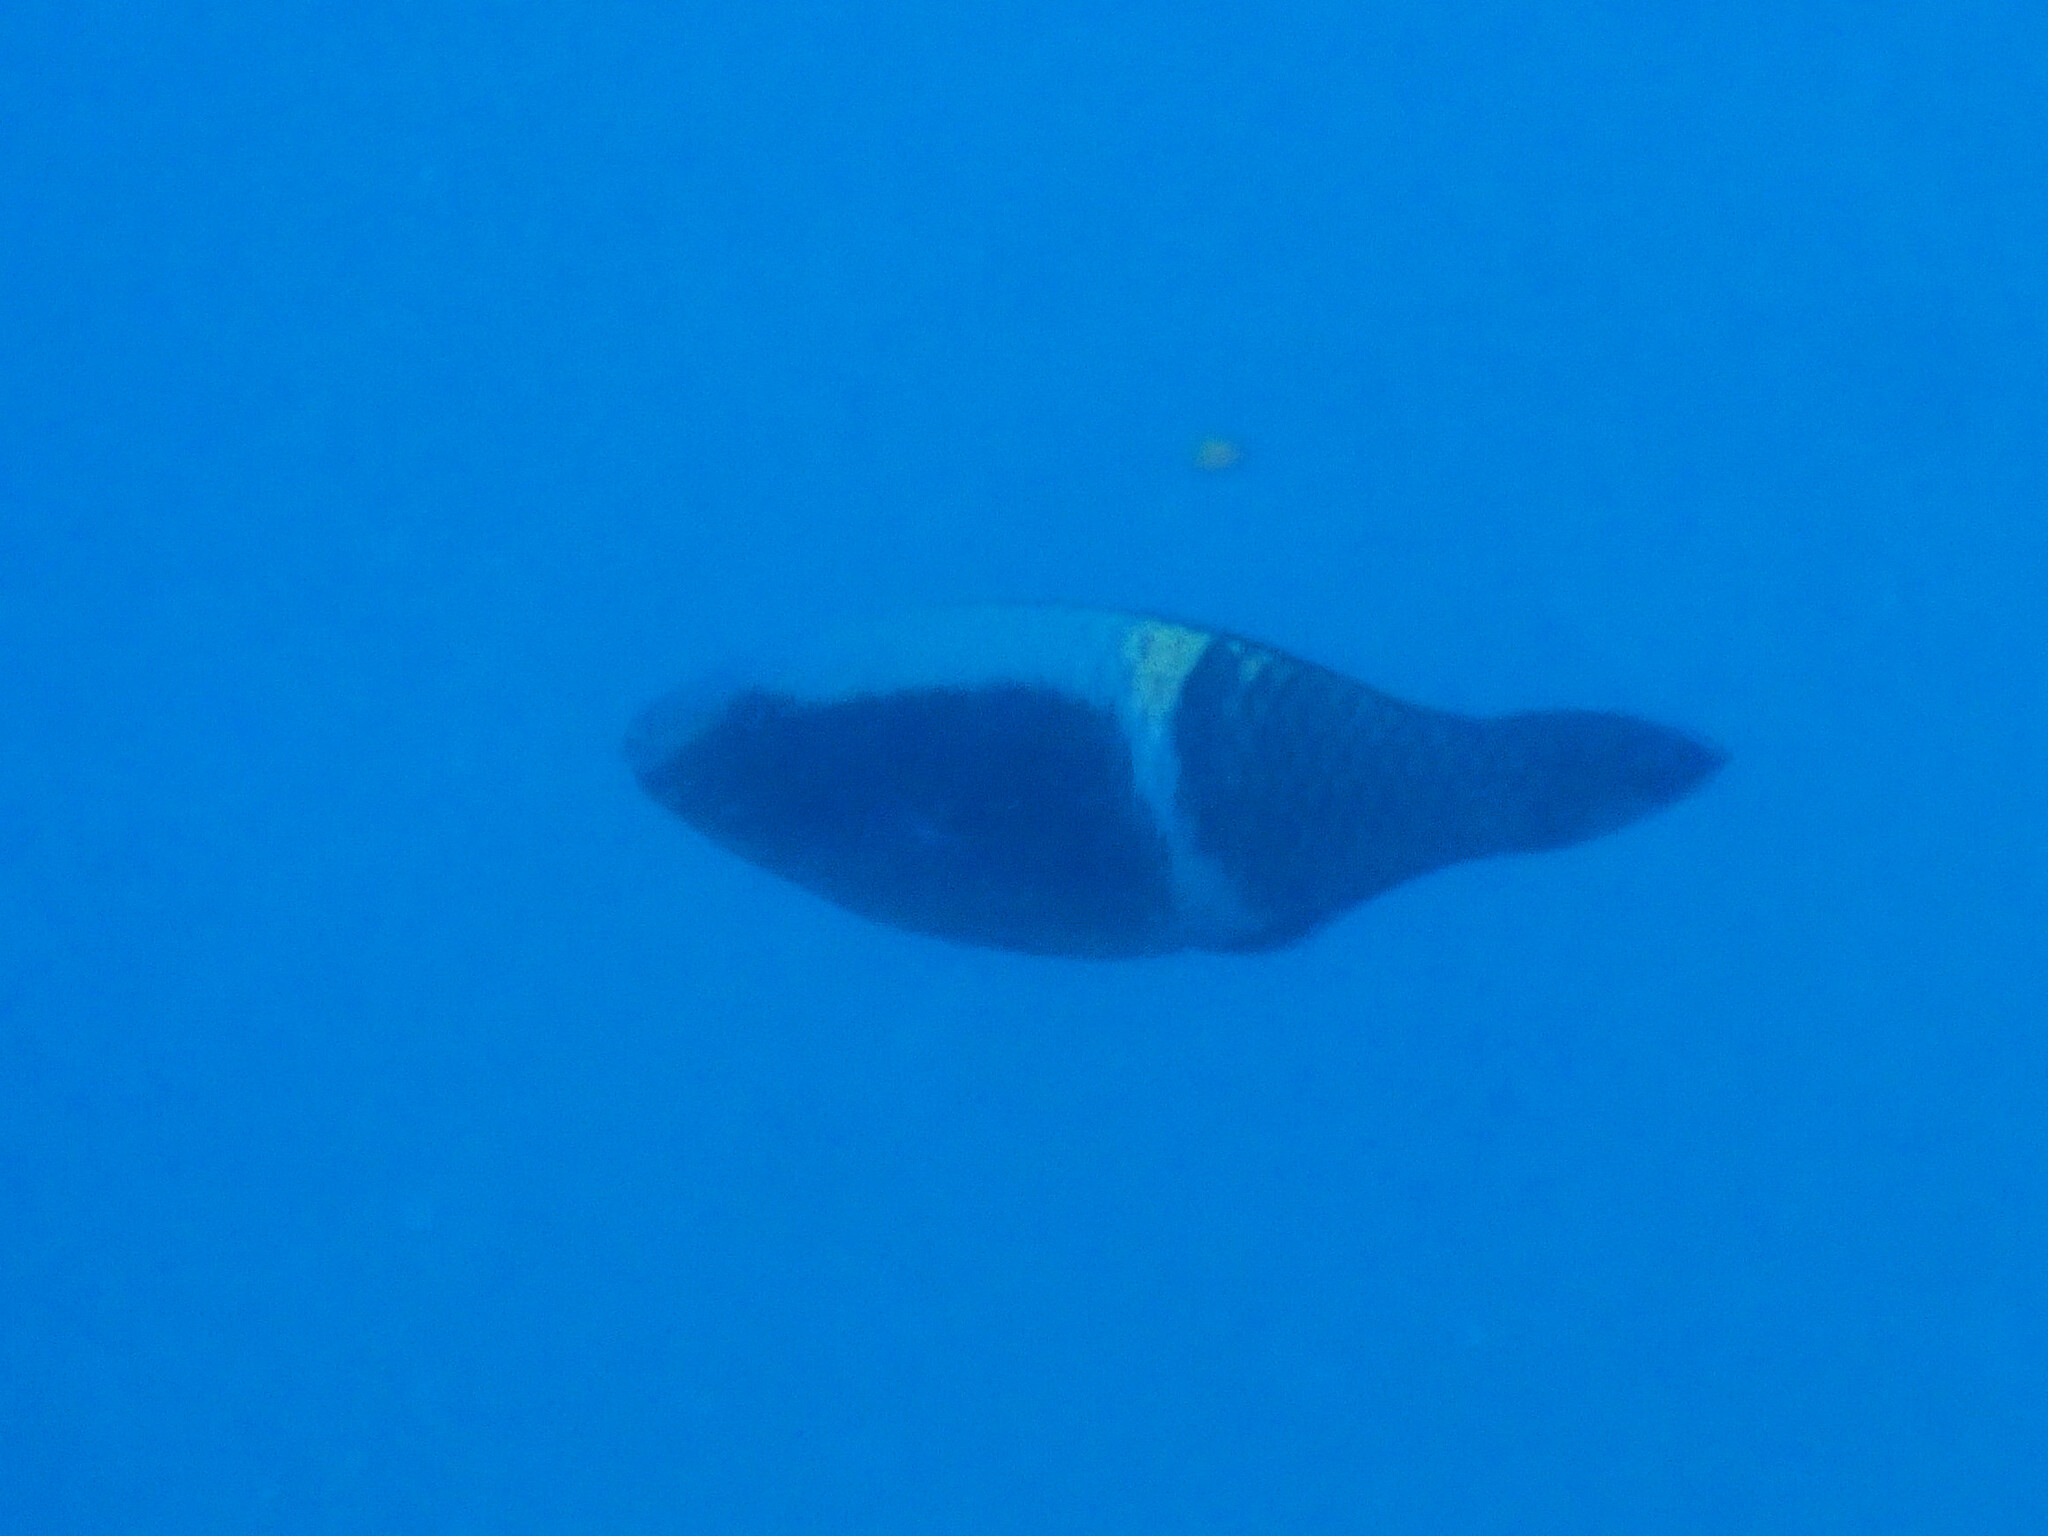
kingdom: Animalia
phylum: Chordata
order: Perciformes
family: Scaridae
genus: Scarus
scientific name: Scarus schlegeli
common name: Schlegel's parrotfish
